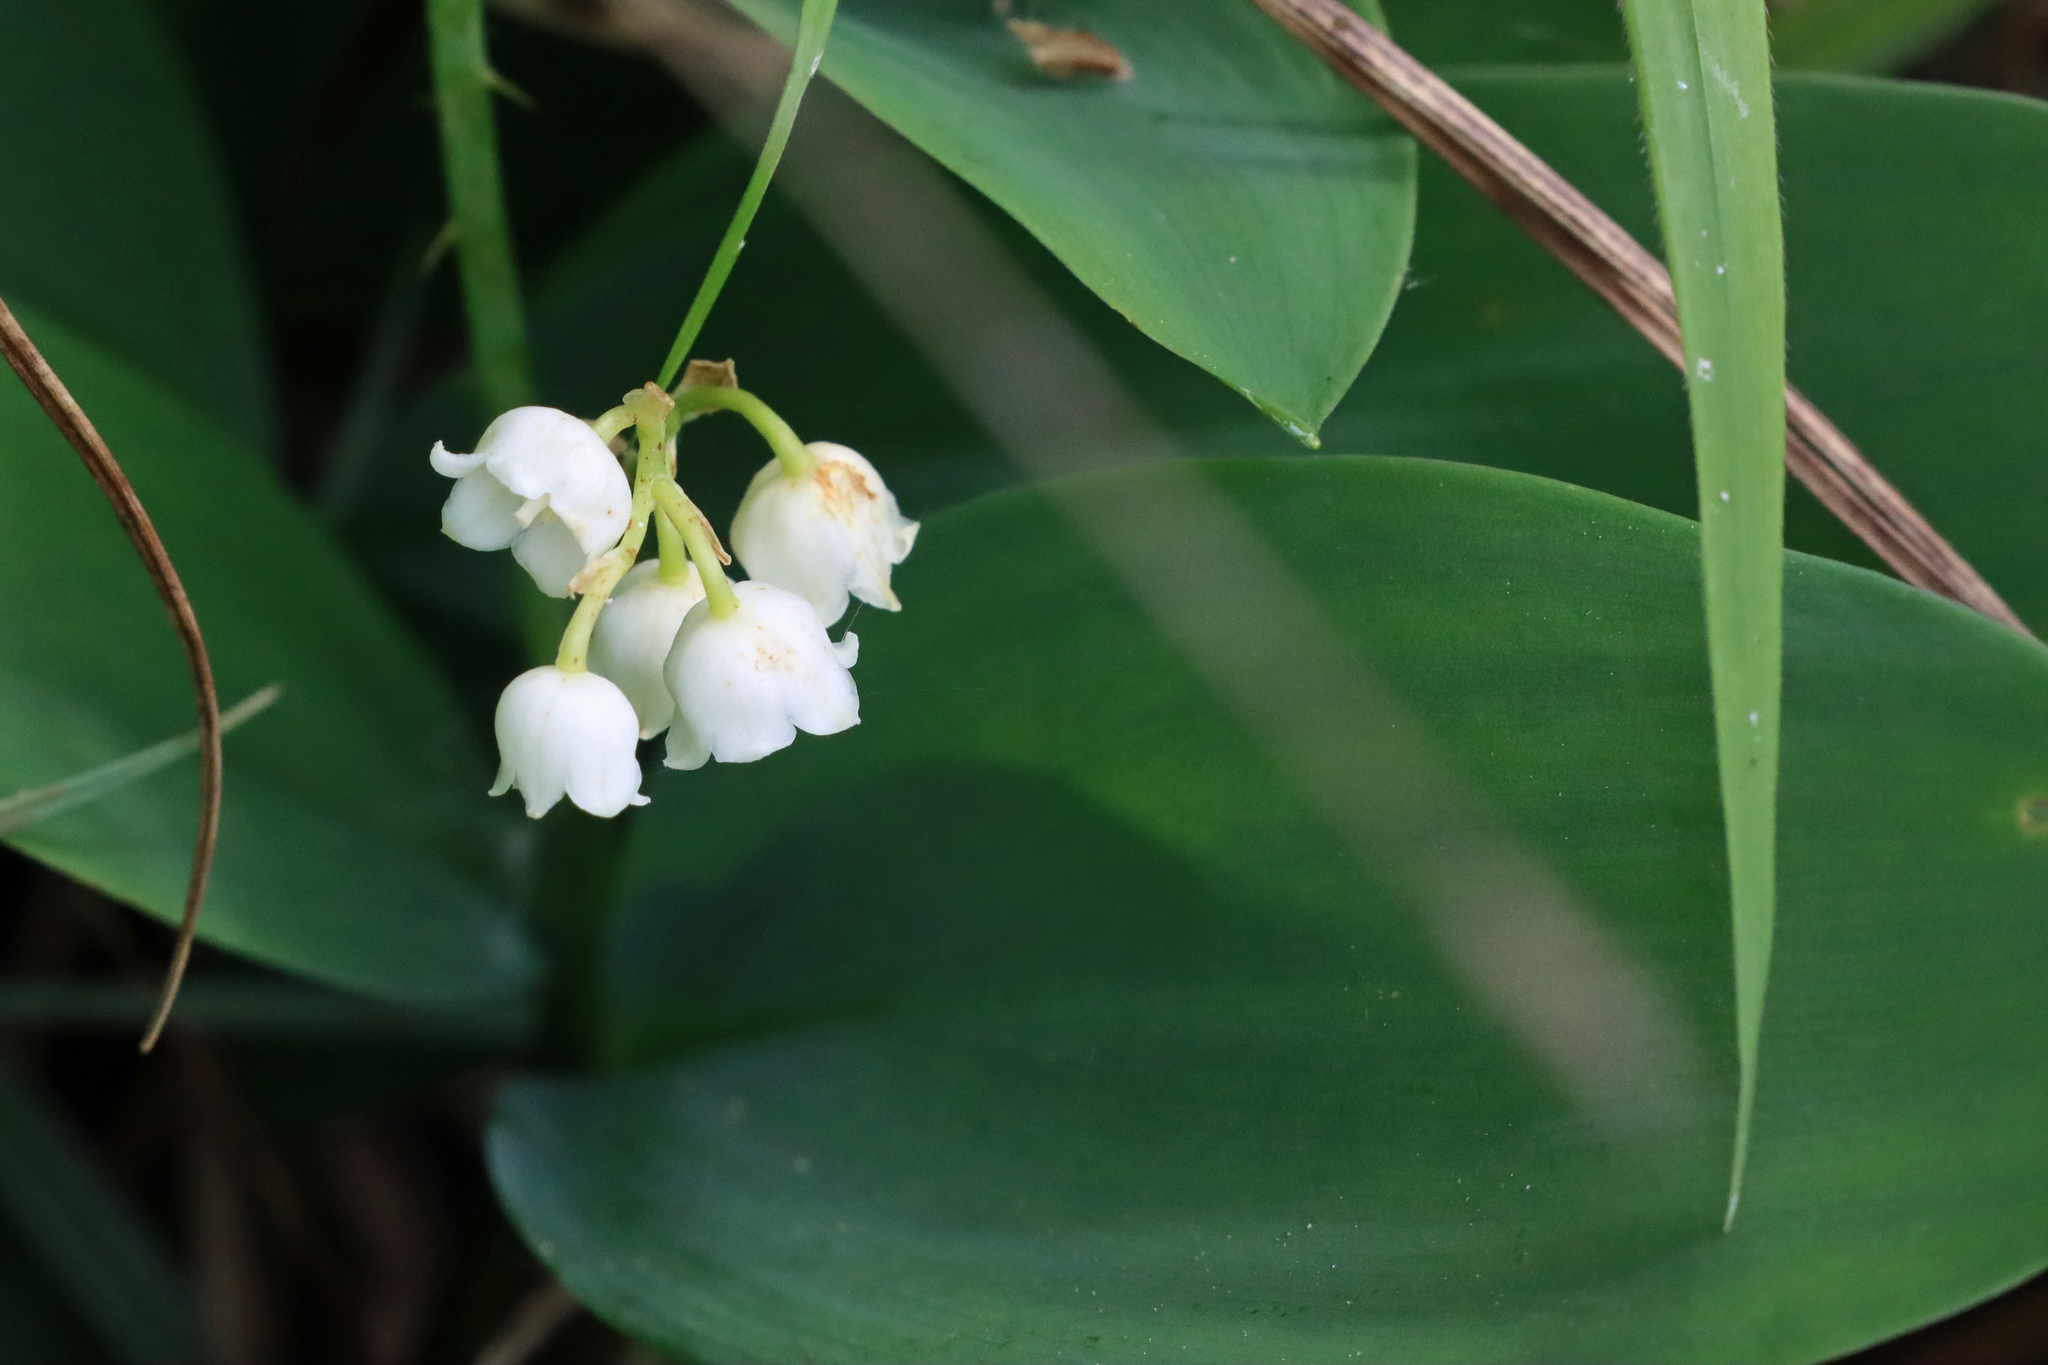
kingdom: Plantae
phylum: Tracheophyta
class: Liliopsida
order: Asparagales
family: Asparagaceae
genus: Convallaria
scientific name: Convallaria majalis
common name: Lily-of-the-valley
